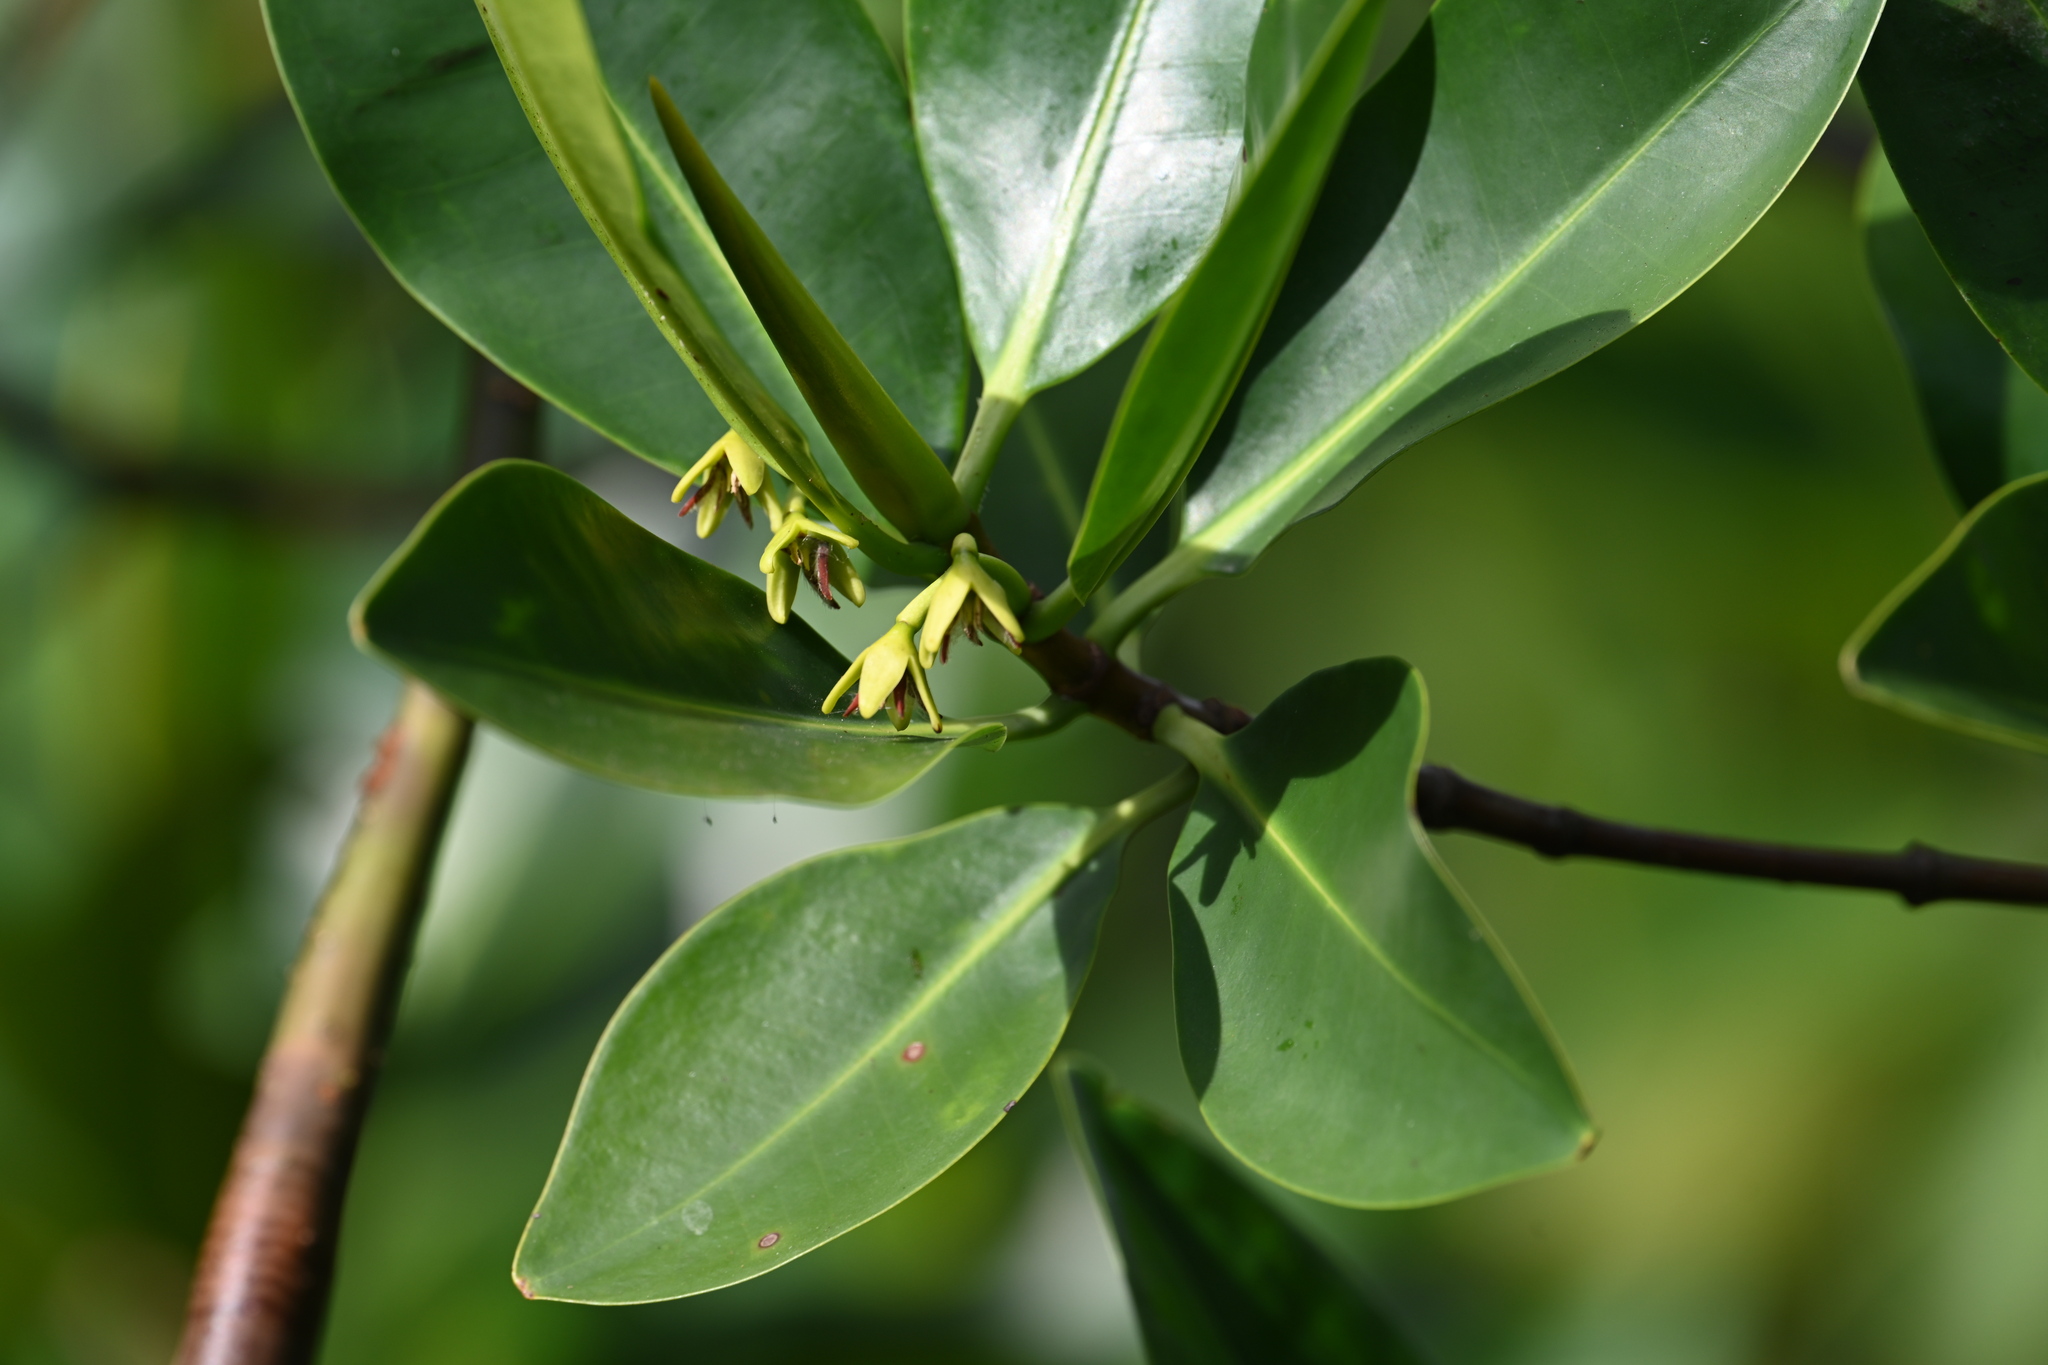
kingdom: Plantae
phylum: Tracheophyta
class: Magnoliopsida
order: Malpighiales
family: Rhizophoraceae
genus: Rhizophora
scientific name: Rhizophora mangle
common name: Red mangrove
